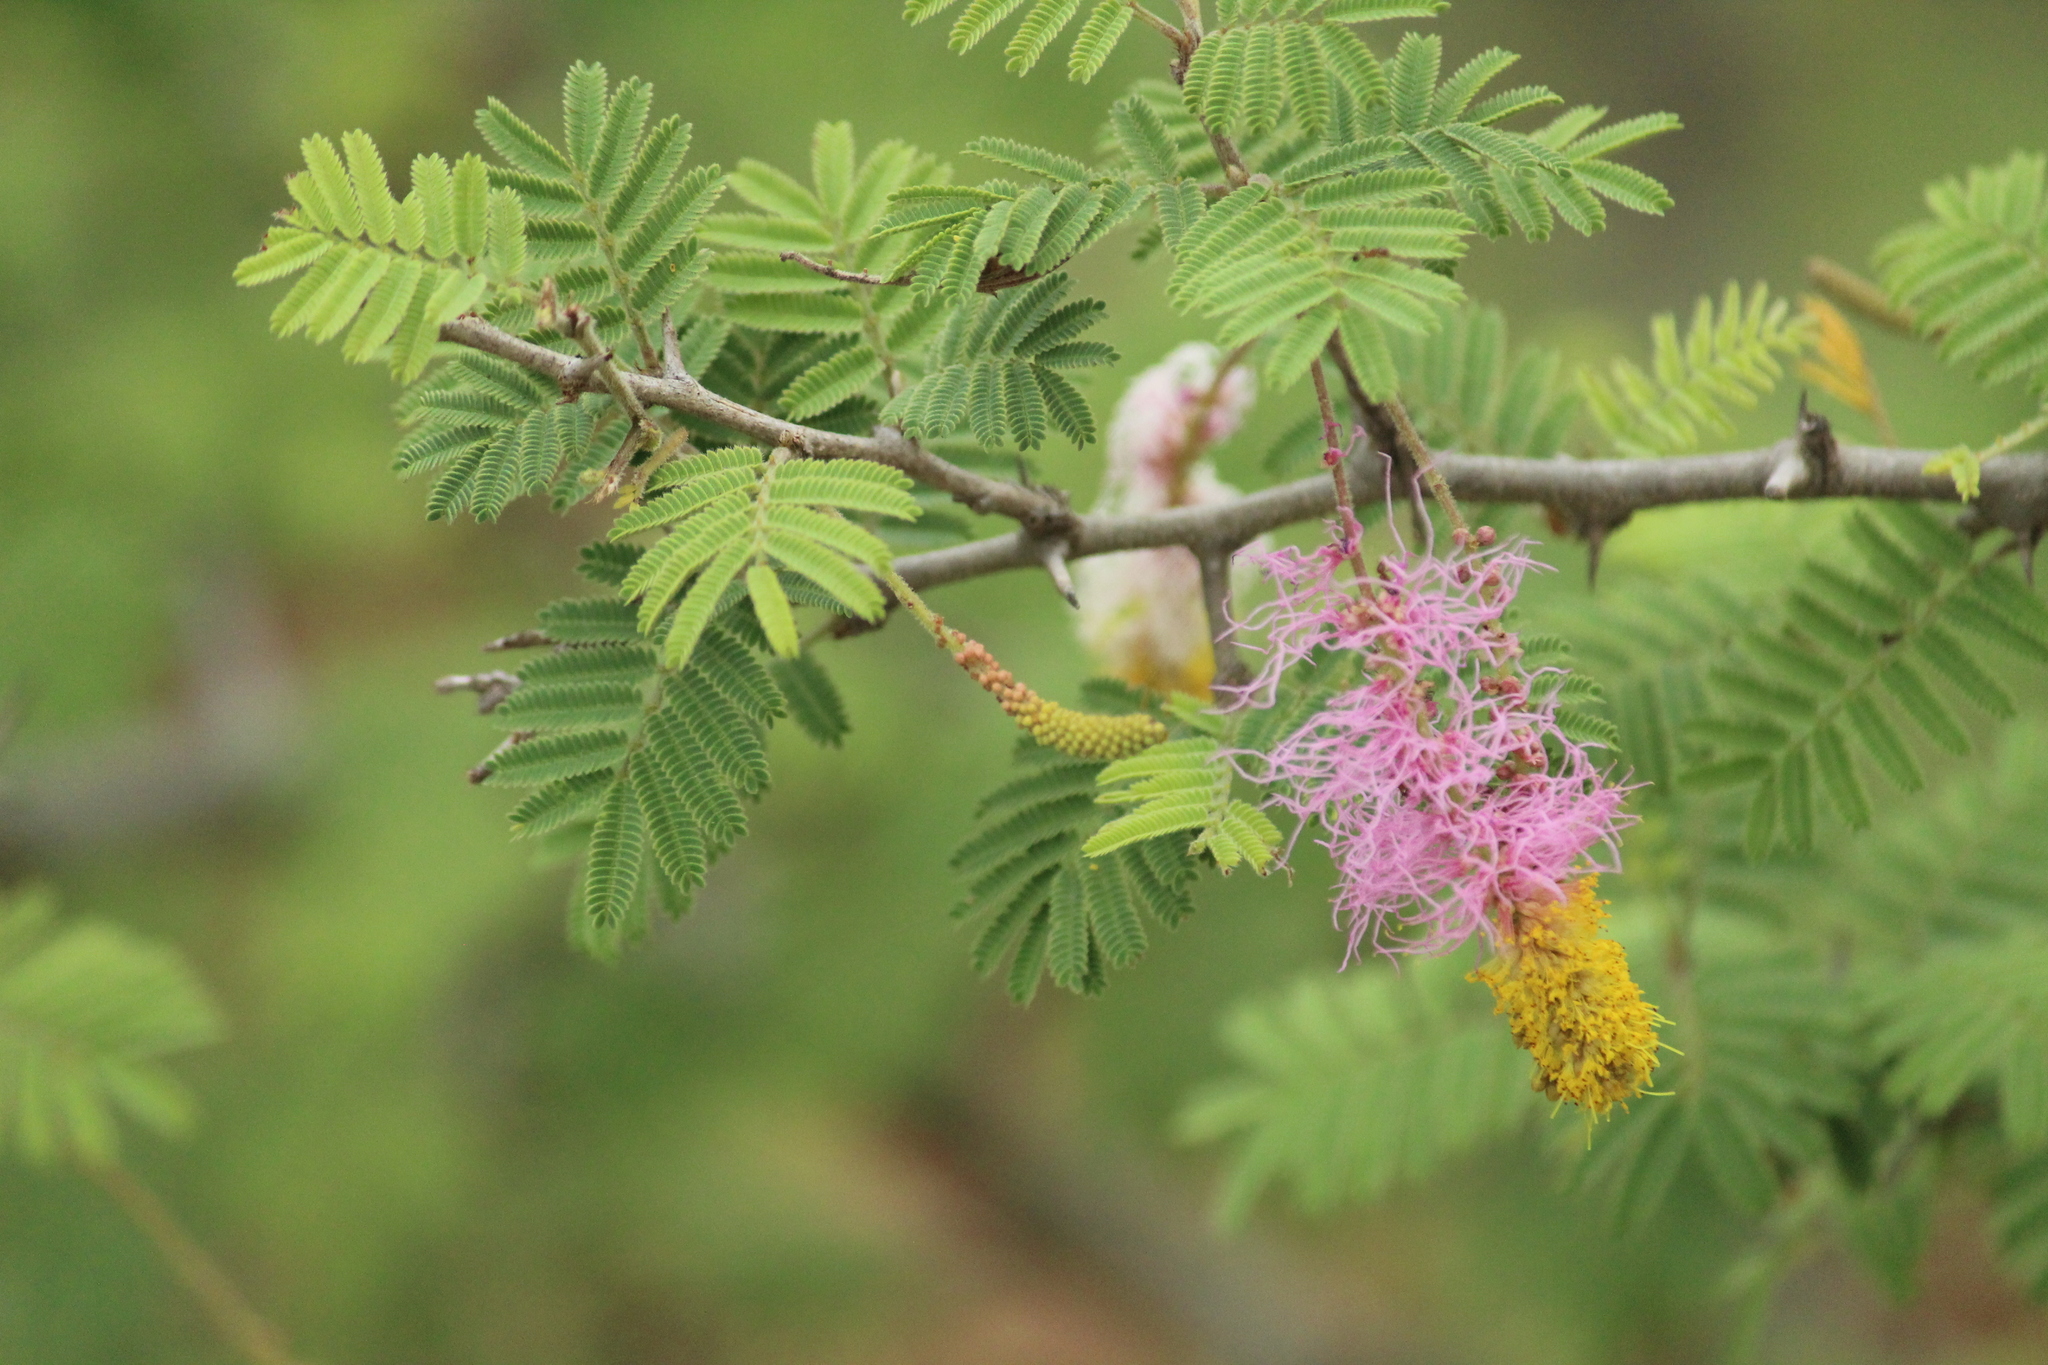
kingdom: Plantae
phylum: Tracheophyta
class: Magnoliopsida
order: Fabales
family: Fabaceae
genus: Dichrostachys
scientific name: Dichrostachys cinerea
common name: Sicklebush
